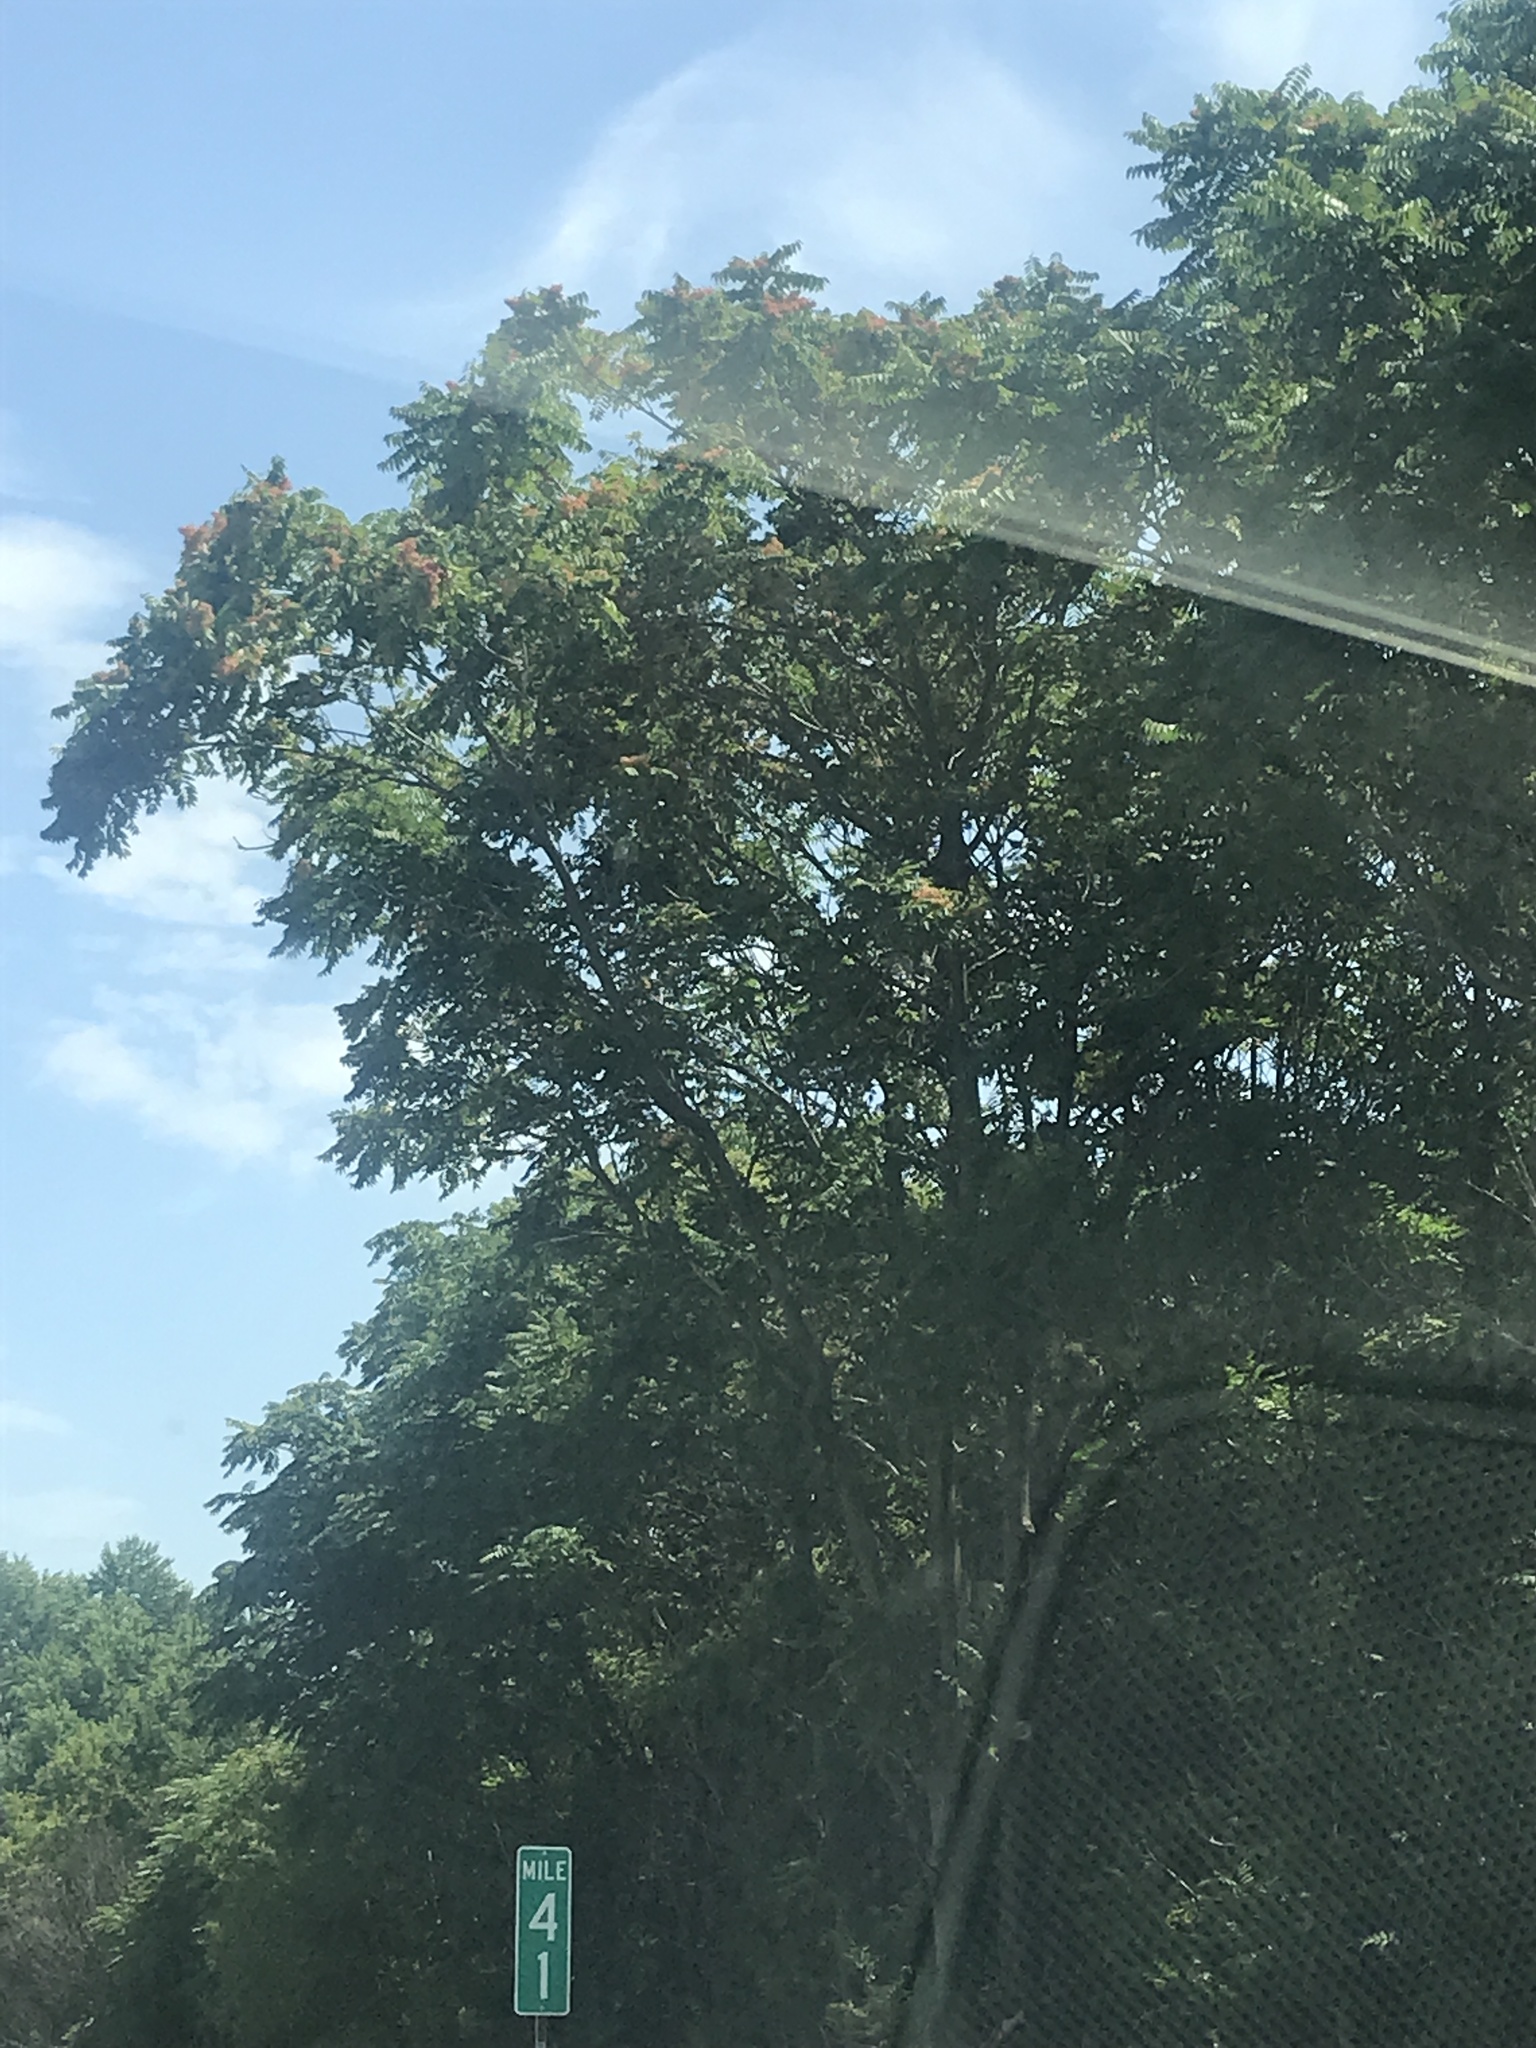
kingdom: Plantae
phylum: Tracheophyta
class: Magnoliopsida
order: Sapindales
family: Simaroubaceae
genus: Ailanthus
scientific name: Ailanthus altissima
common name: Tree-of-heaven
